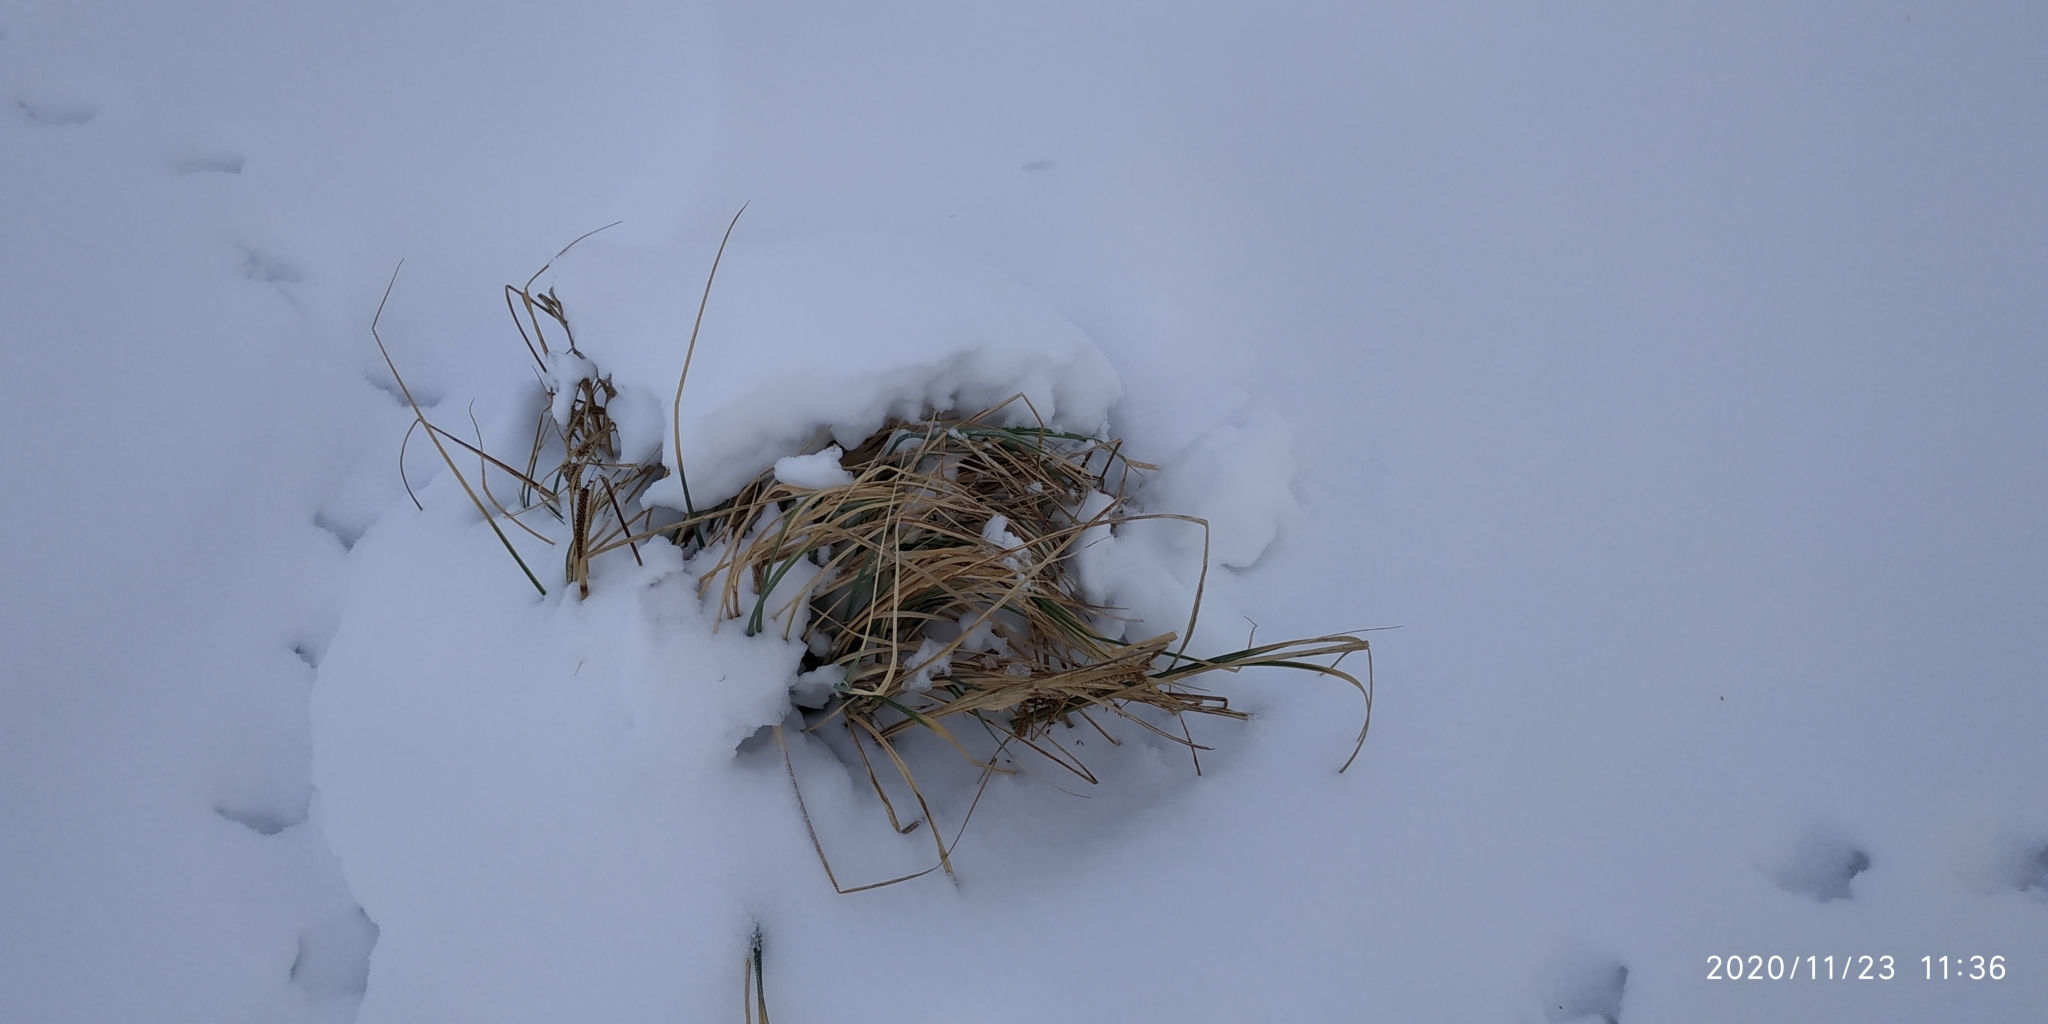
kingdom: Plantae
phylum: Tracheophyta
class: Liliopsida
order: Poales
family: Cyperaceae
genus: Carex
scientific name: Carex aquatilis
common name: Water sedge
